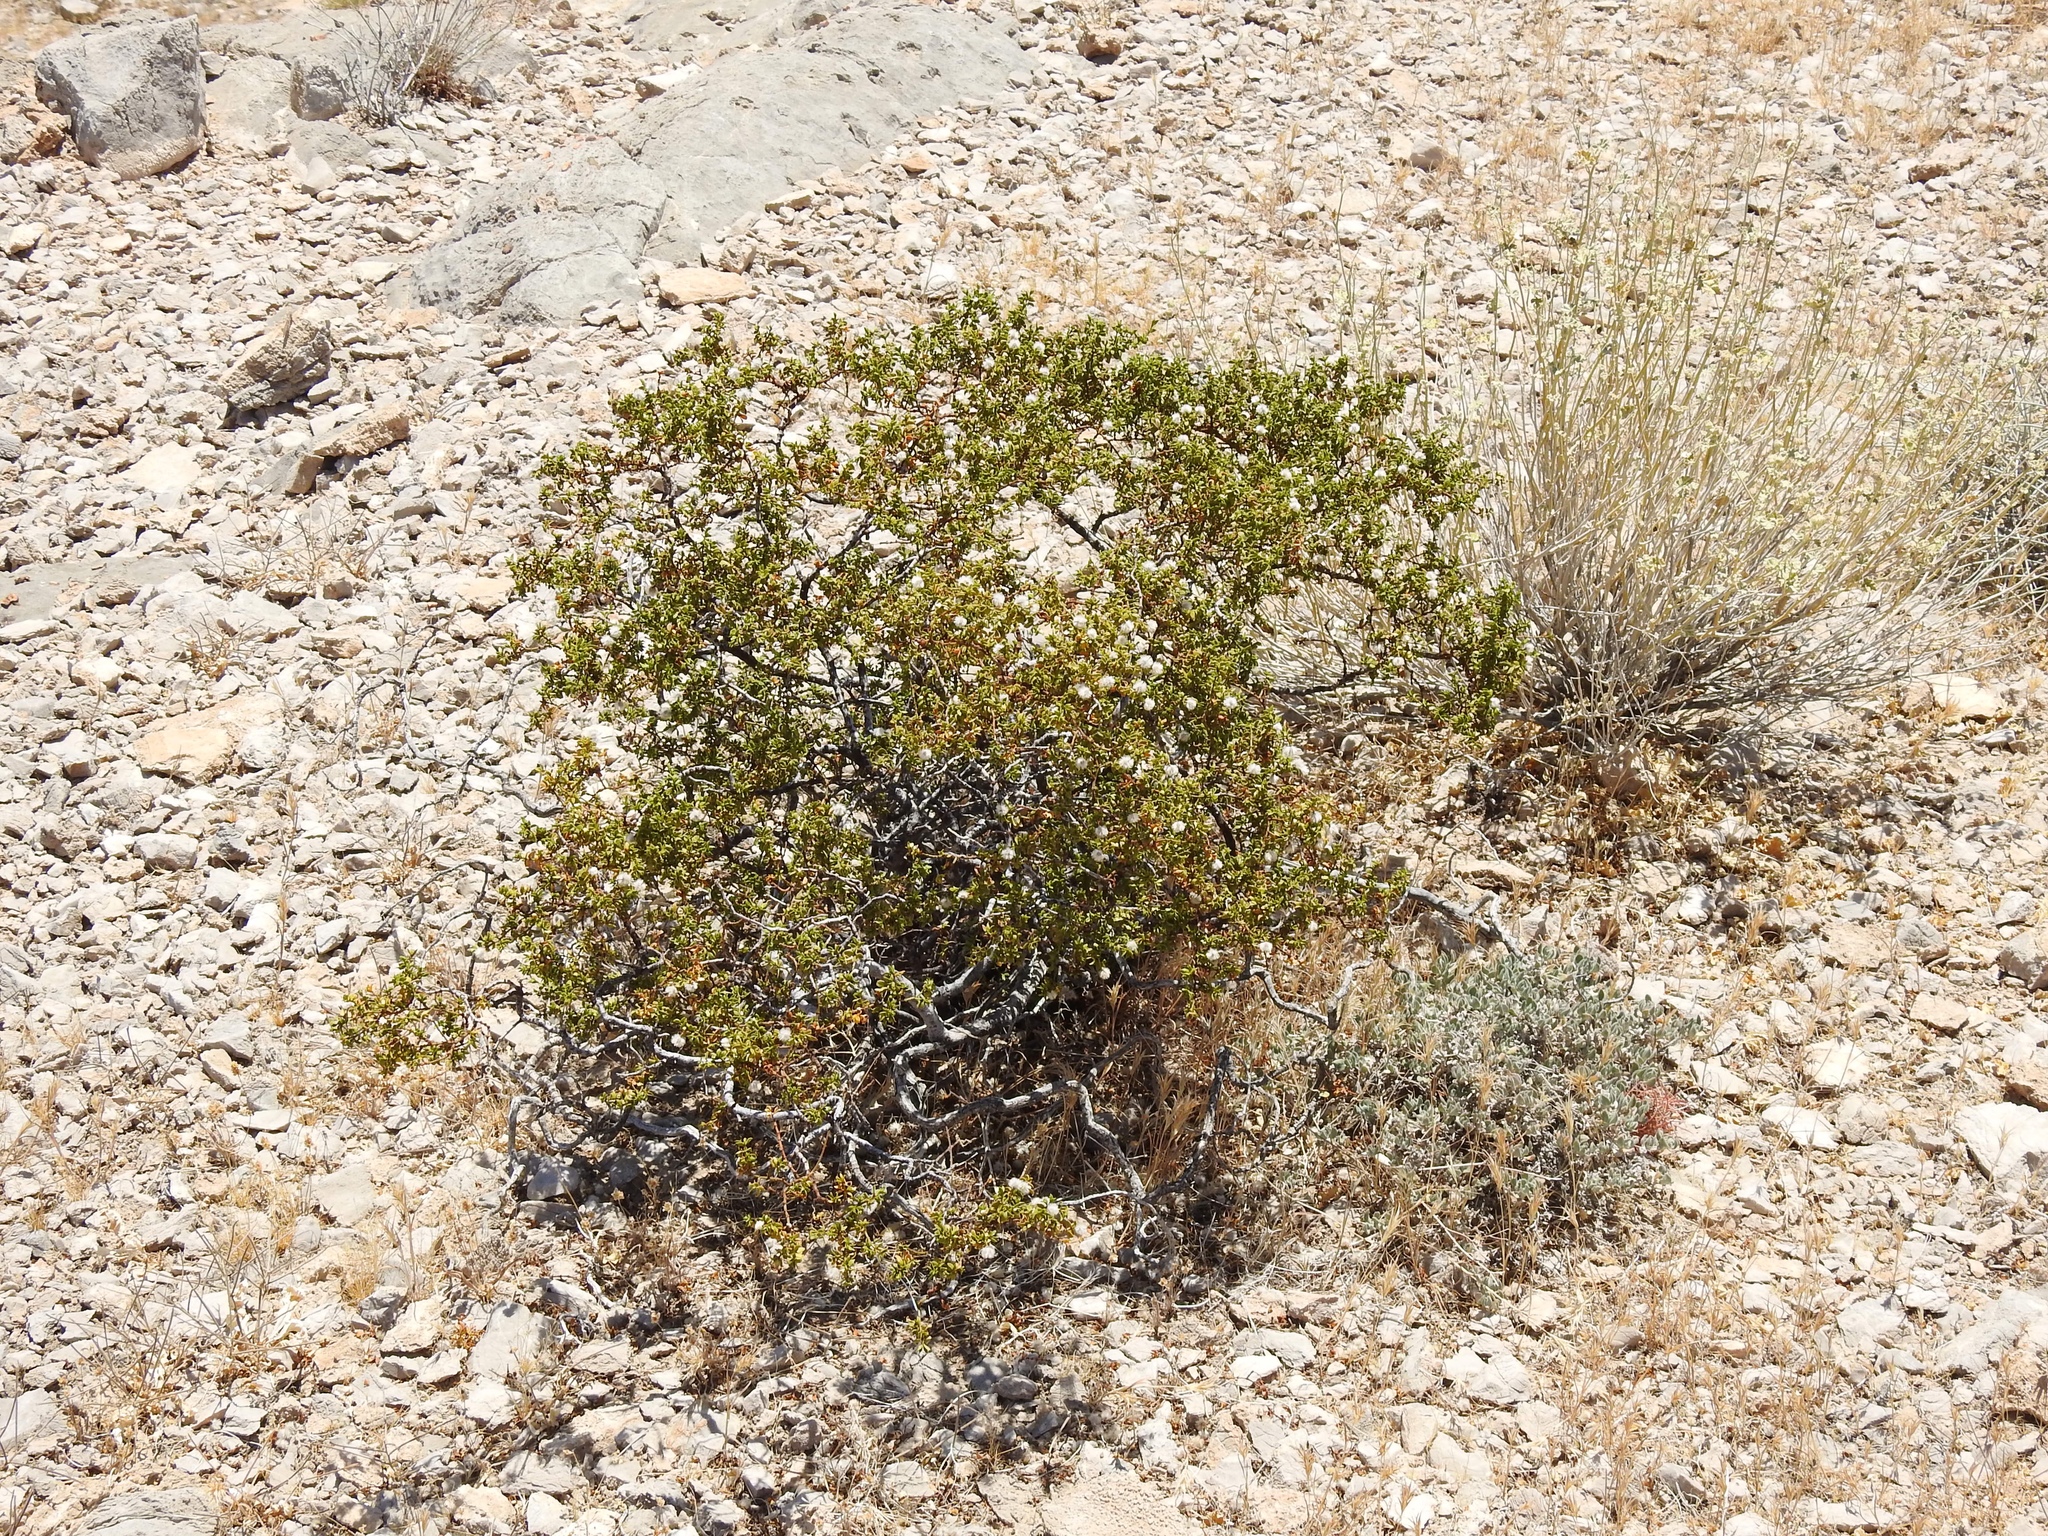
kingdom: Plantae
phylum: Tracheophyta
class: Magnoliopsida
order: Zygophyllales
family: Zygophyllaceae
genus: Larrea
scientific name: Larrea tridentata
